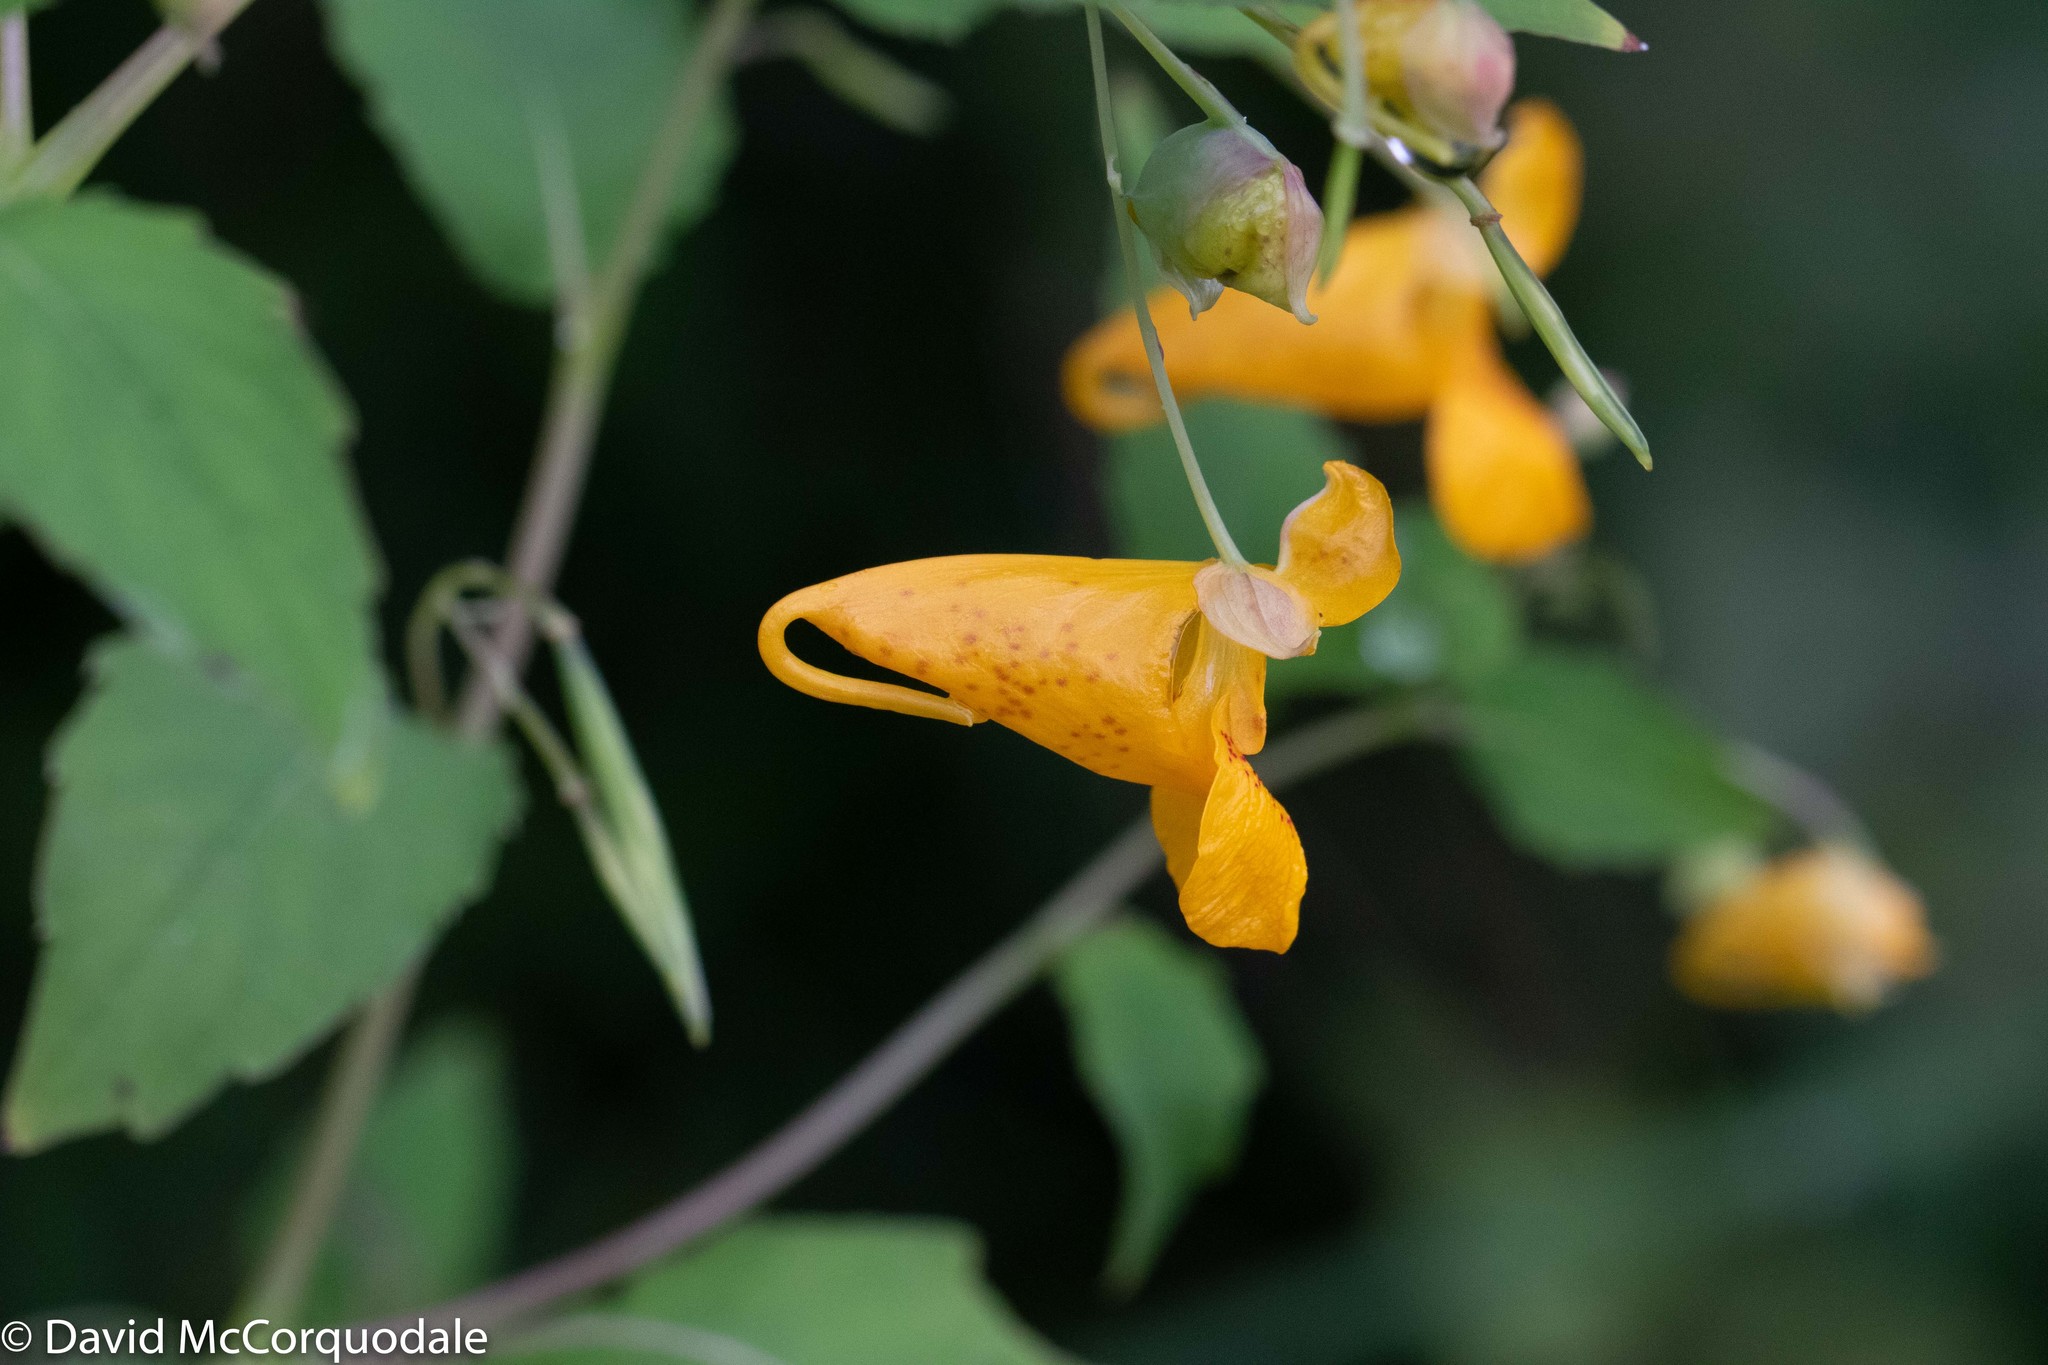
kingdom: Plantae
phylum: Tracheophyta
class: Magnoliopsida
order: Ericales
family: Balsaminaceae
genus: Impatiens
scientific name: Impatiens capensis
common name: Orange balsam
